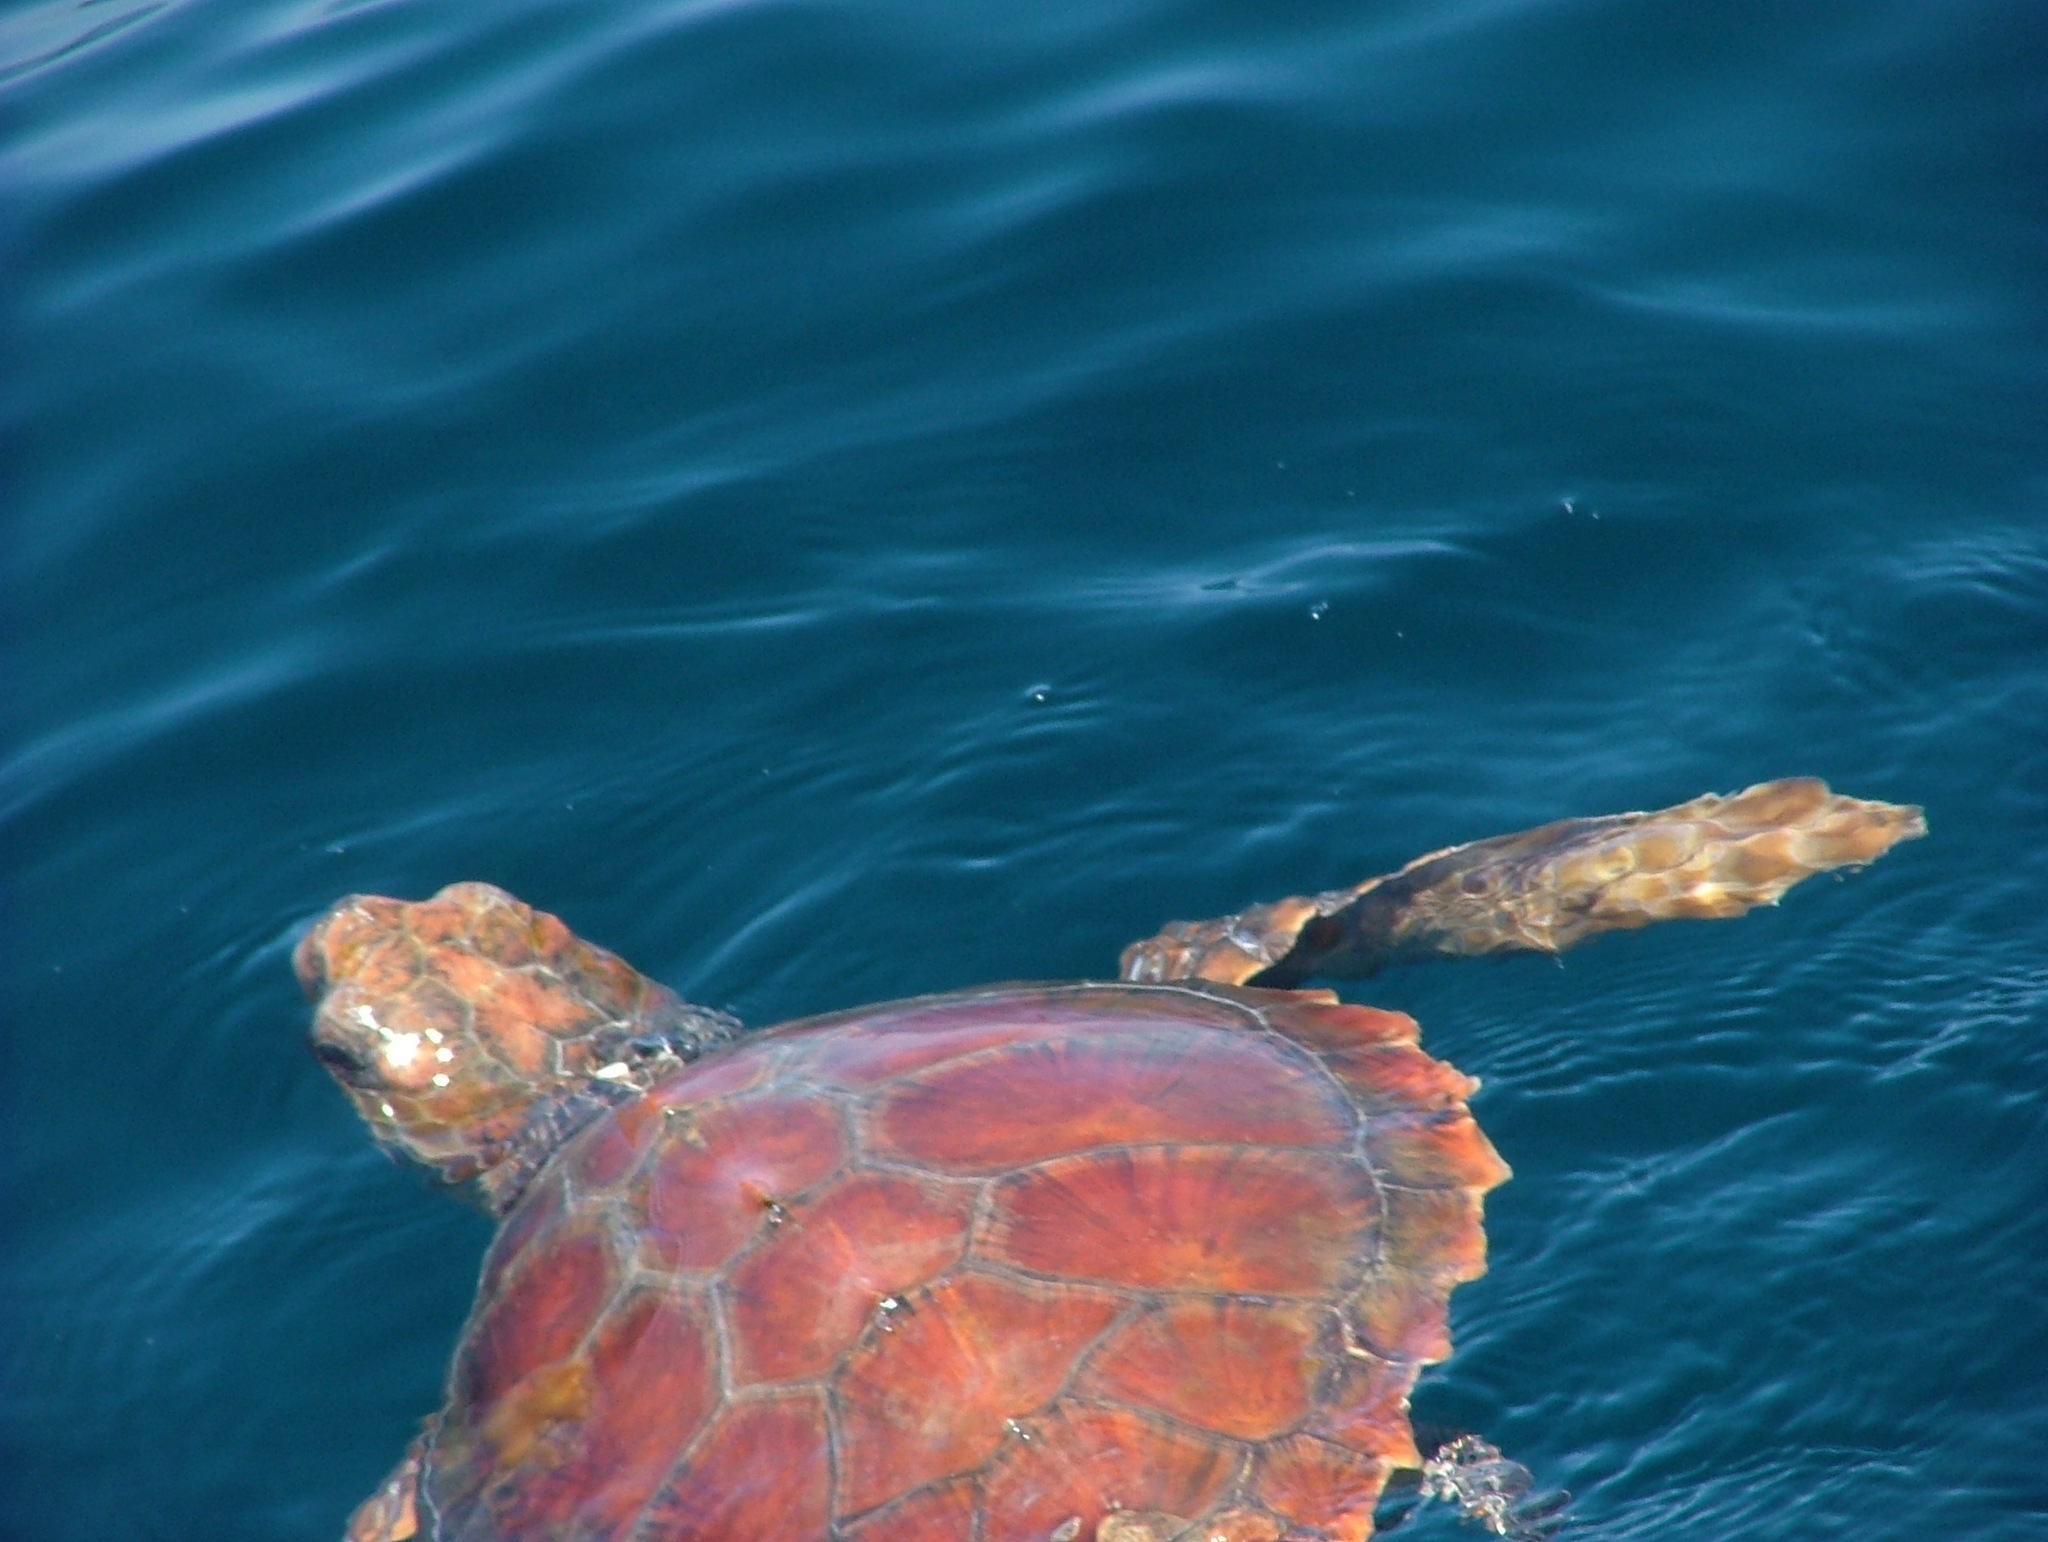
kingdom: Animalia
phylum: Chordata
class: Testudines
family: Cheloniidae
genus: Caretta
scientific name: Caretta caretta
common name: Loggerhead sea turtle
